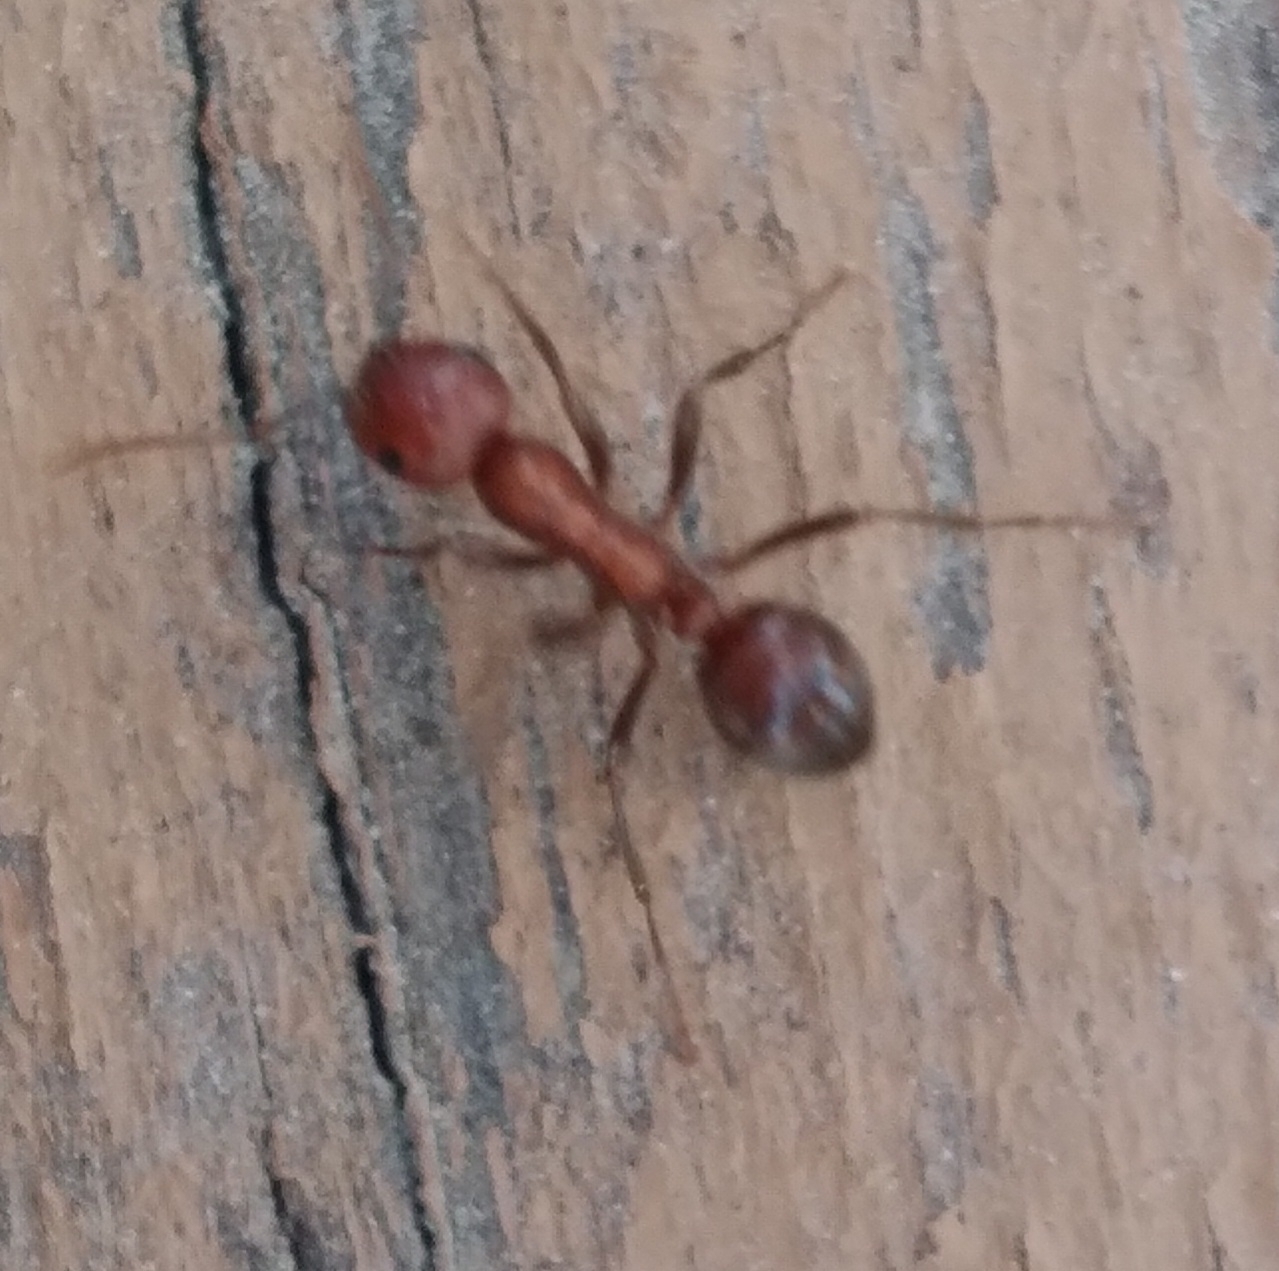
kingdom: Animalia
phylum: Arthropoda
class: Insecta
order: Hymenoptera
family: Formicidae
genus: Polyergus
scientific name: Polyergus
